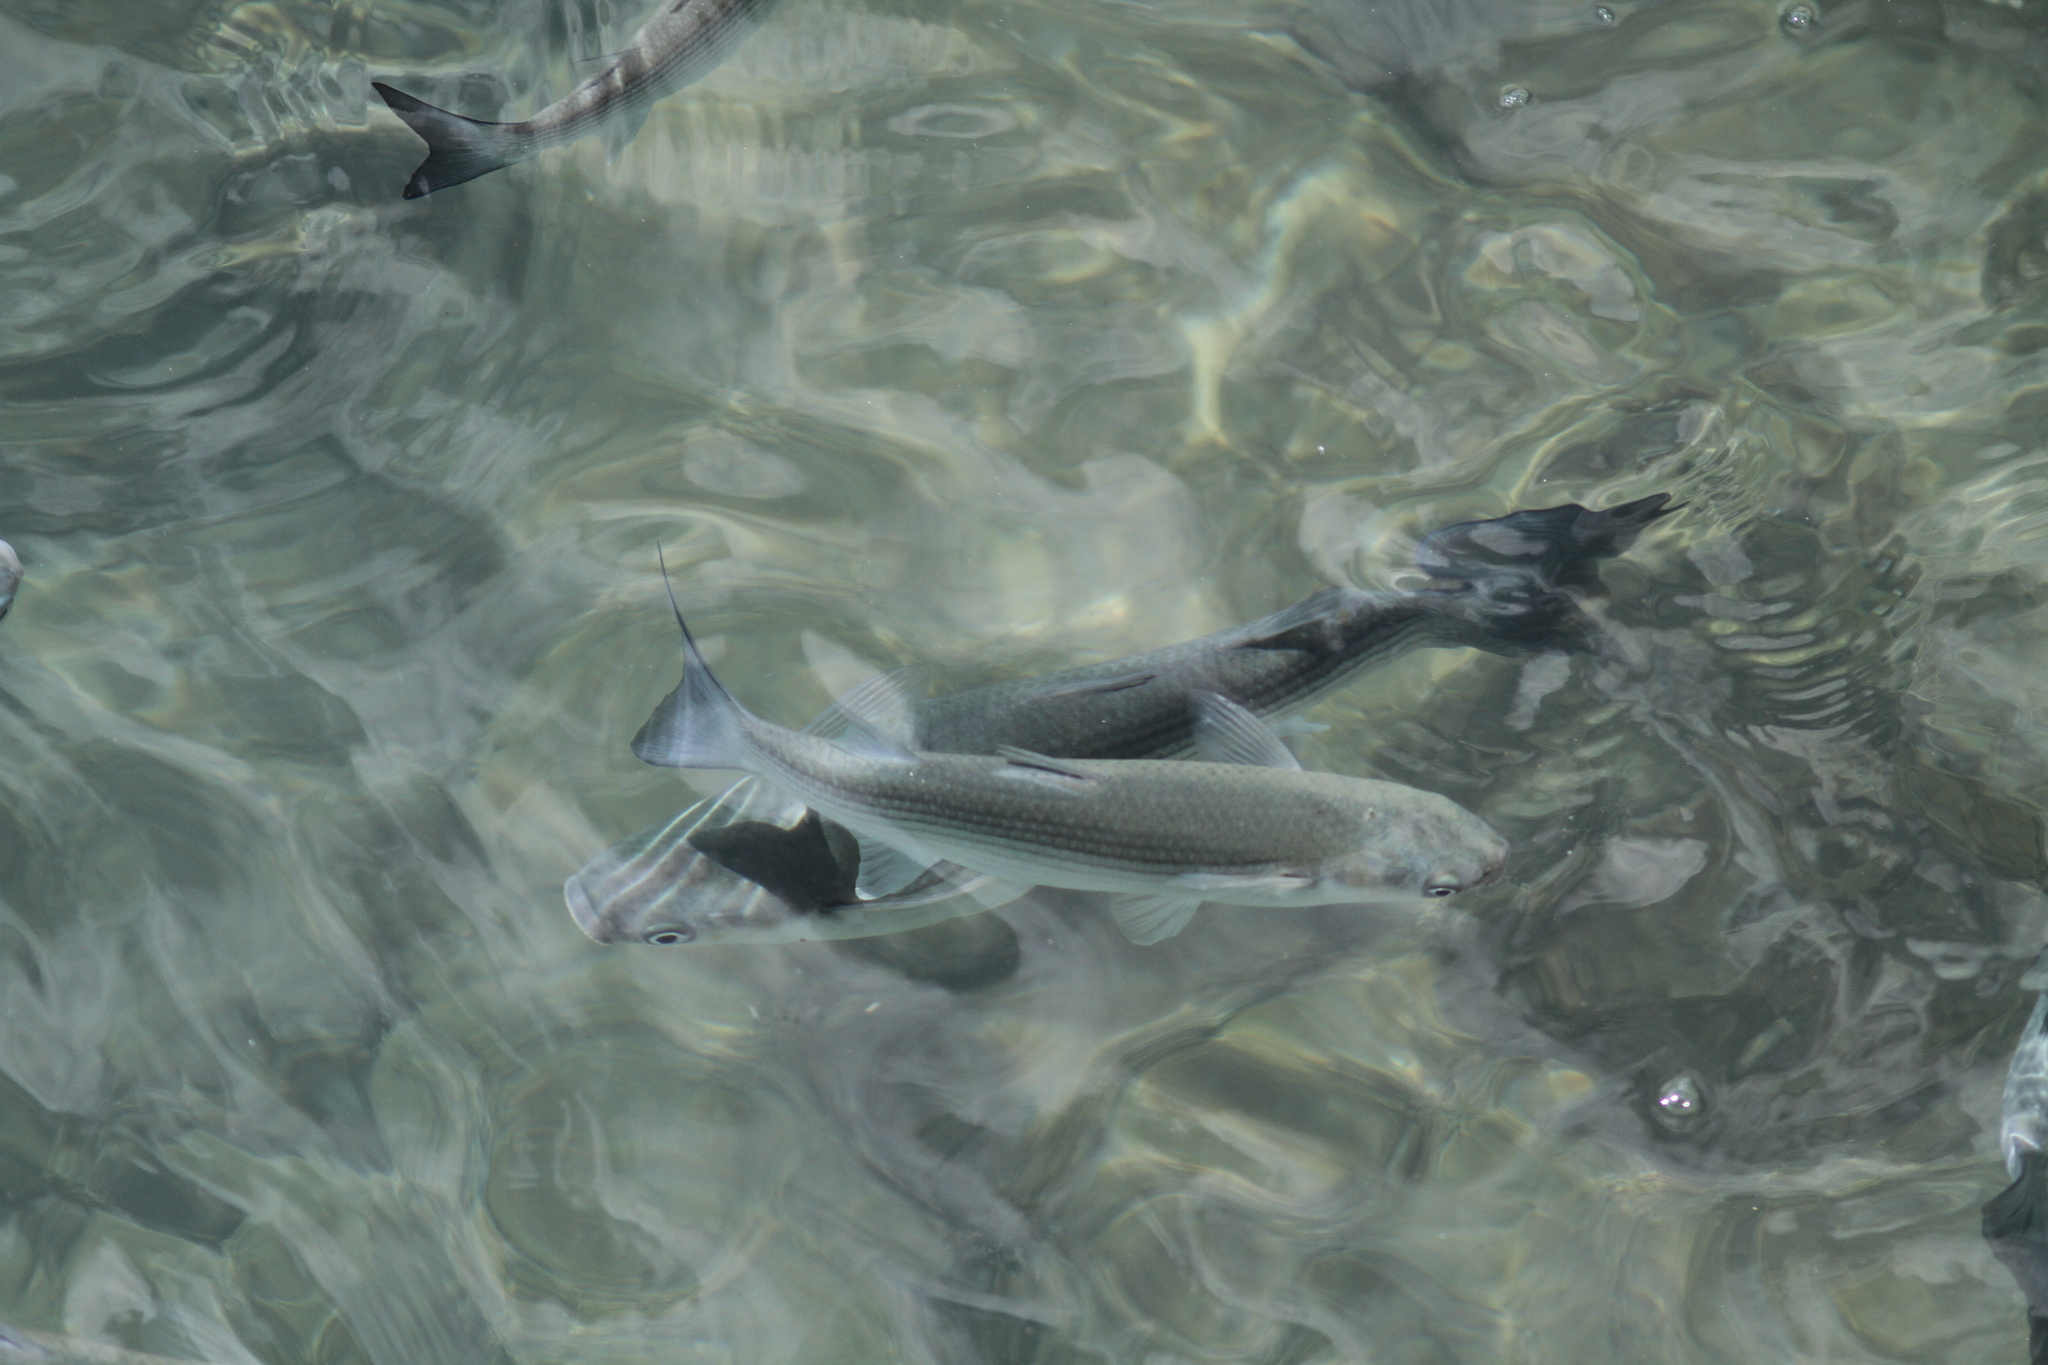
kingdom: Animalia
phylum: Chordata
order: Mugiliformes
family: Mugilidae
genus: Chelon
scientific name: Chelon labrosus
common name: Thick-lipped mullet
